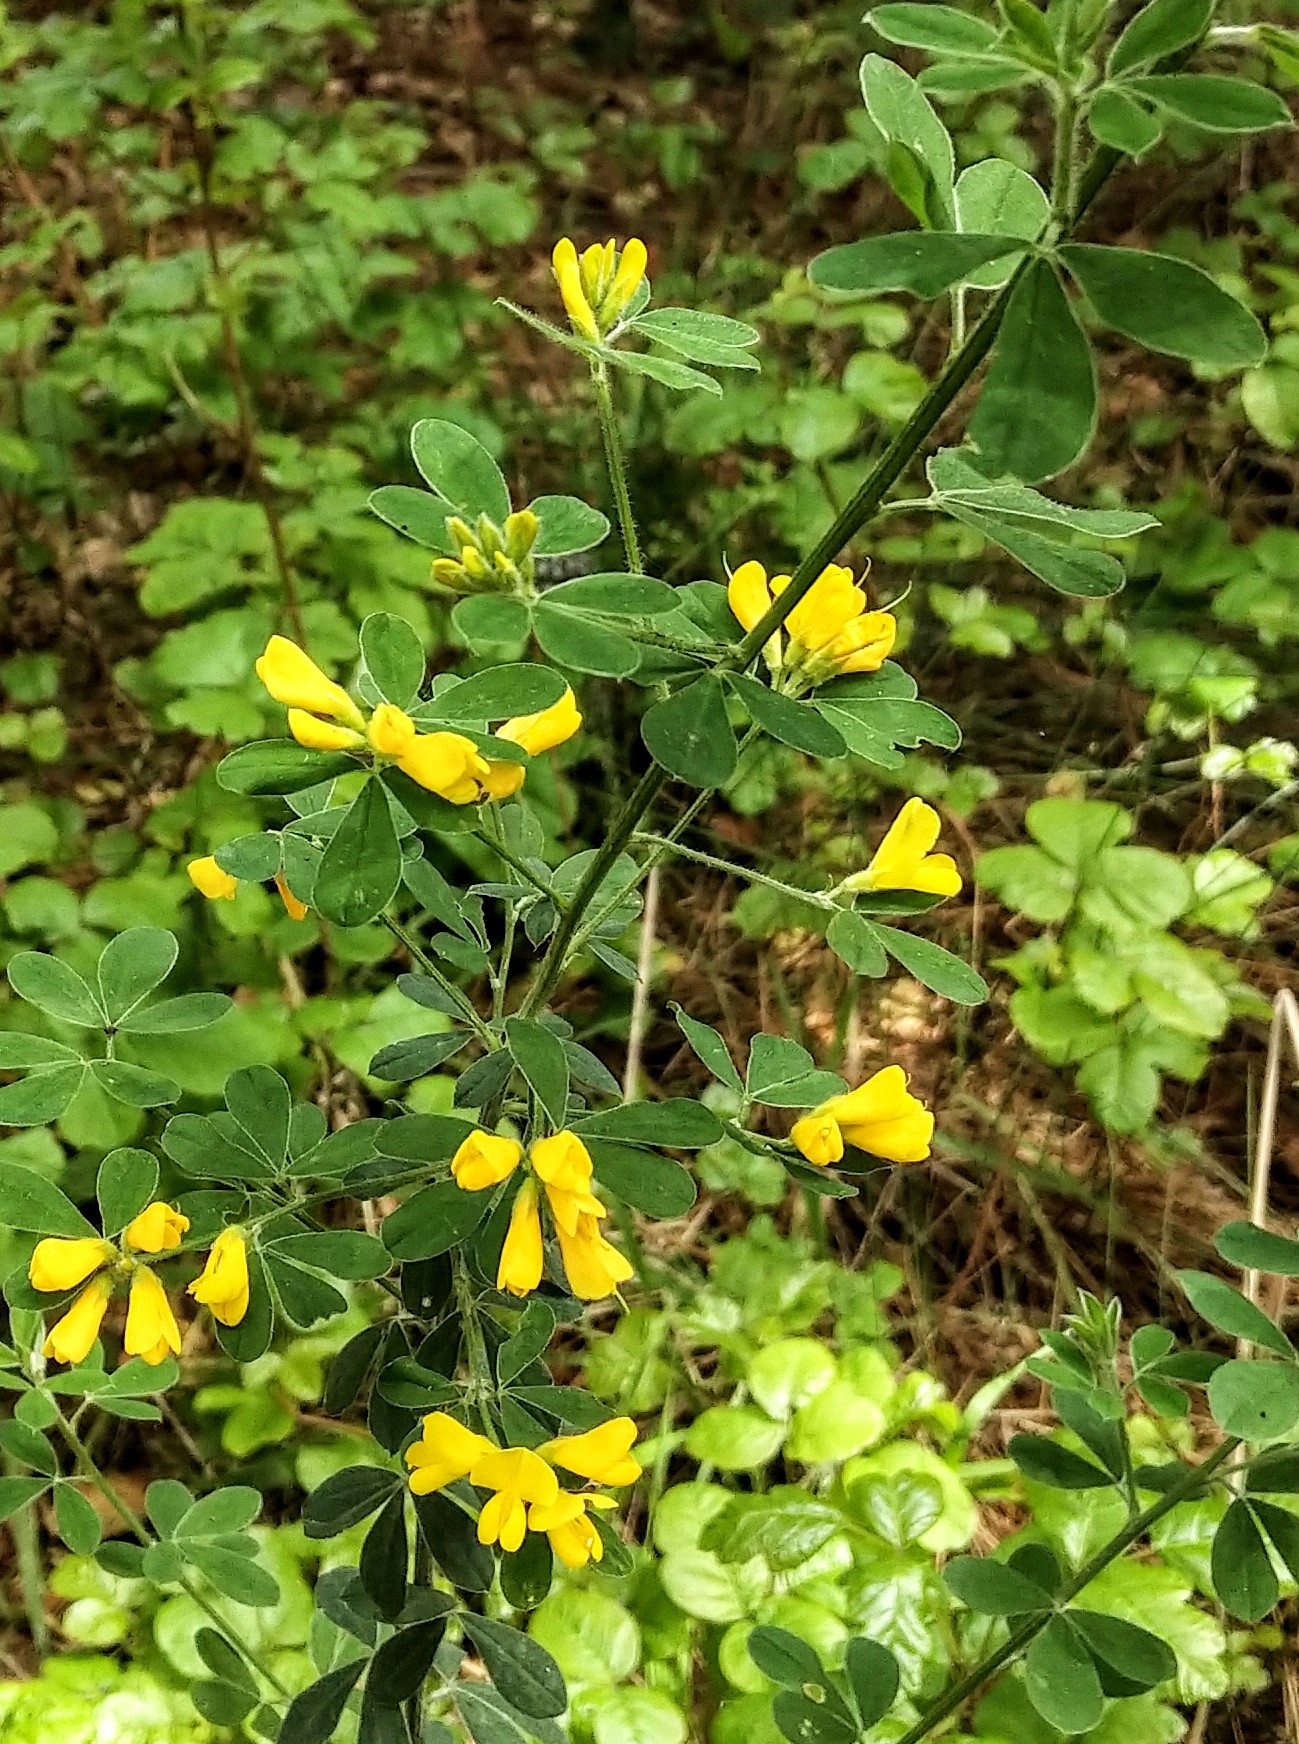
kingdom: Plantae
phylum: Tracheophyta
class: Magnoliopsida
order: Fabales
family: Fabaceae
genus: Genista
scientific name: Genista monspessulana
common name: Montpellier broom
